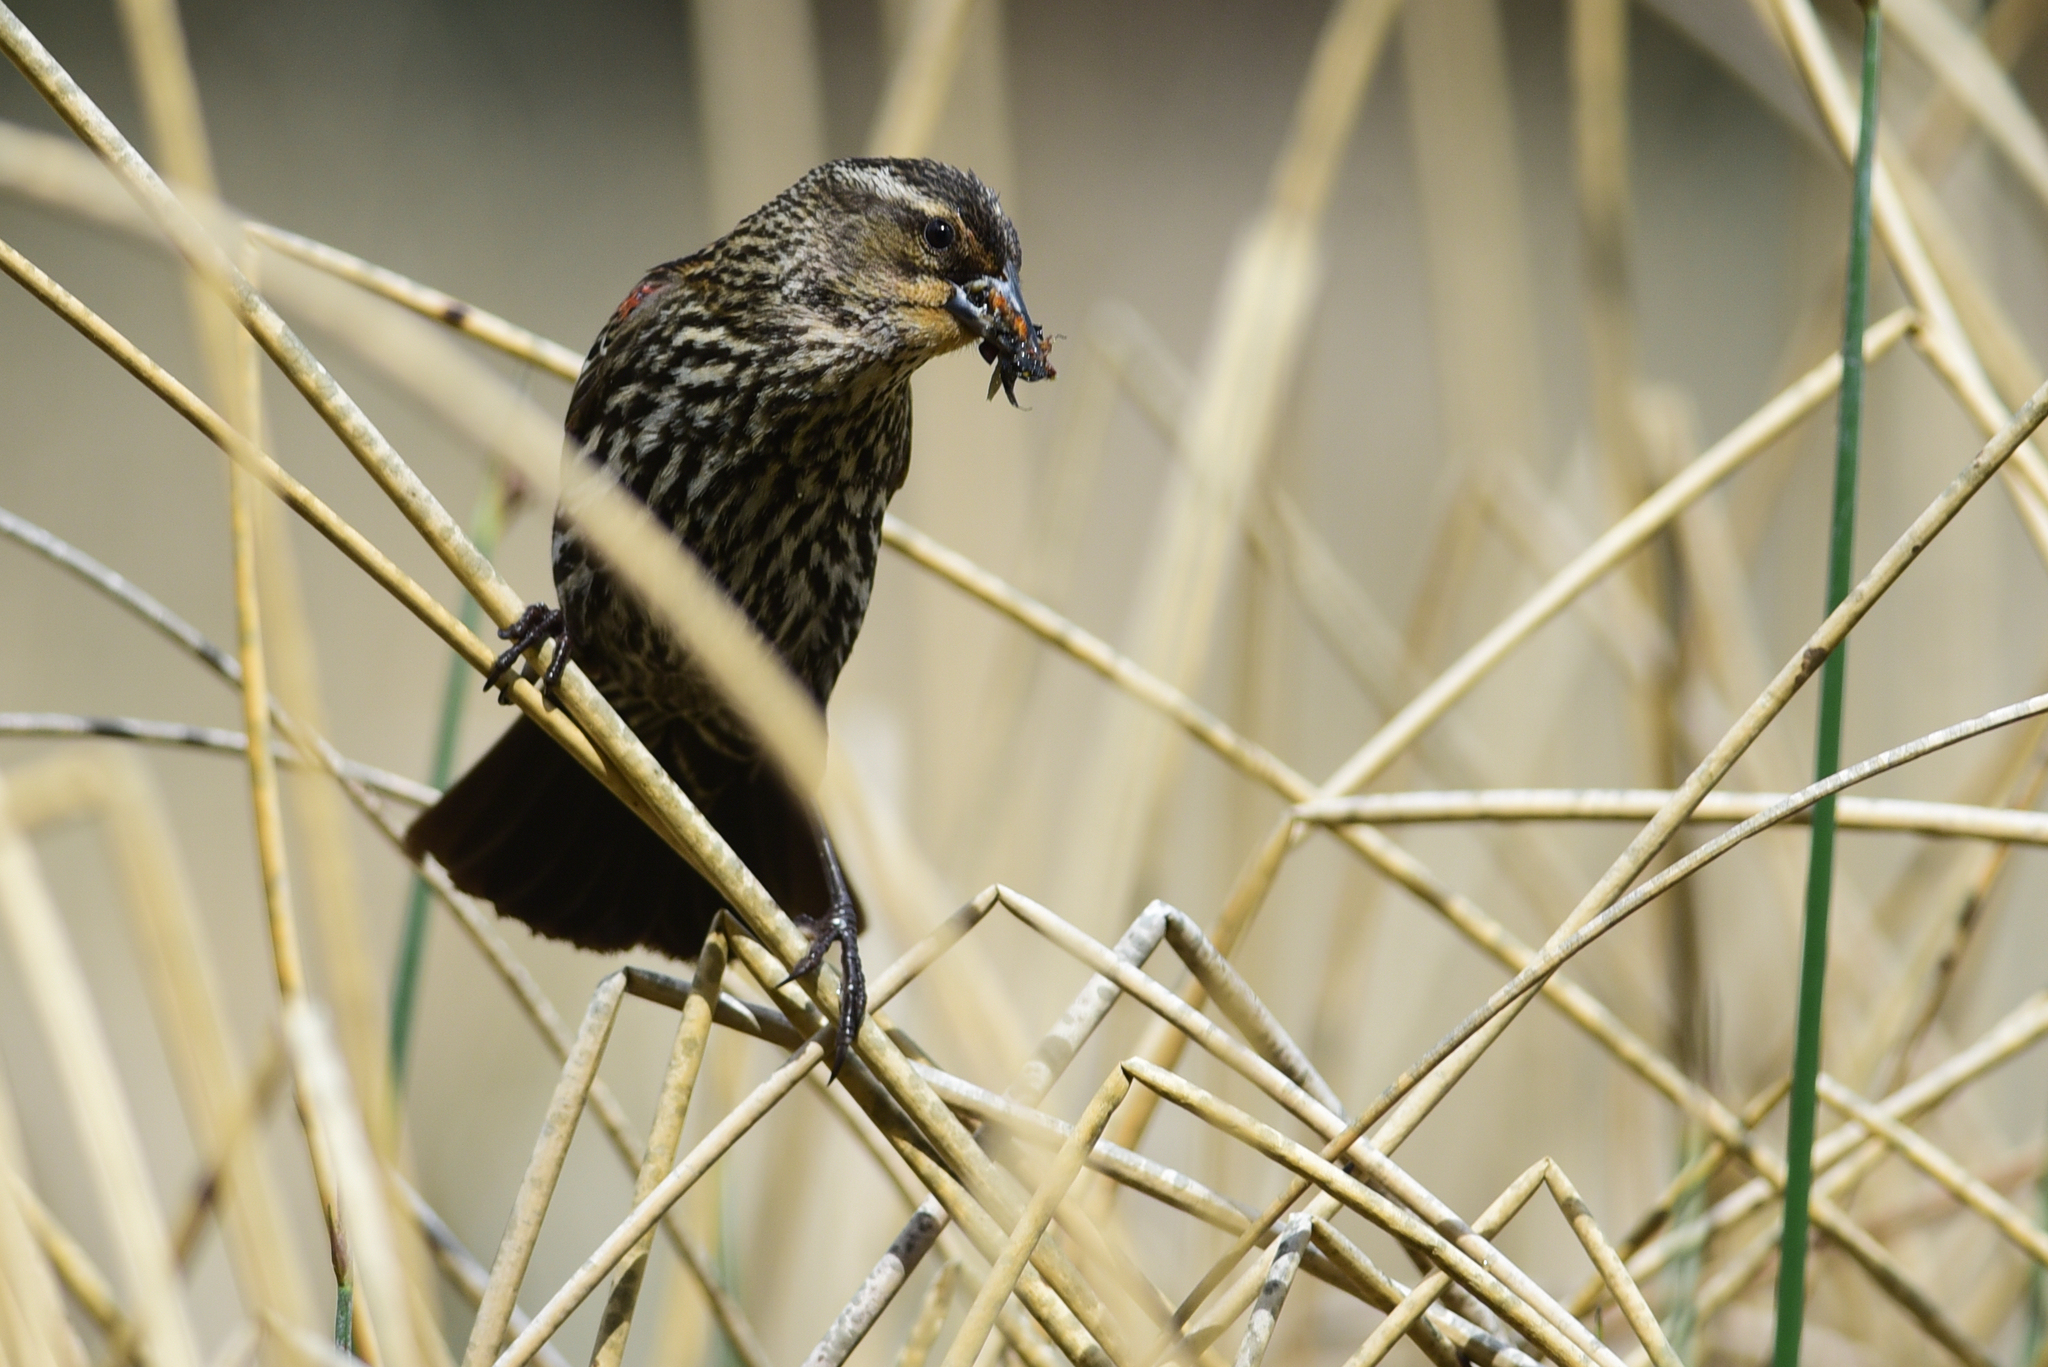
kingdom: Animalia
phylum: Chordata
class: Aves
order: Passeriformes
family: Icteridae
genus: Agelaius
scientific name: Agelaius phoeniceus
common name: Red-winged blackbird
